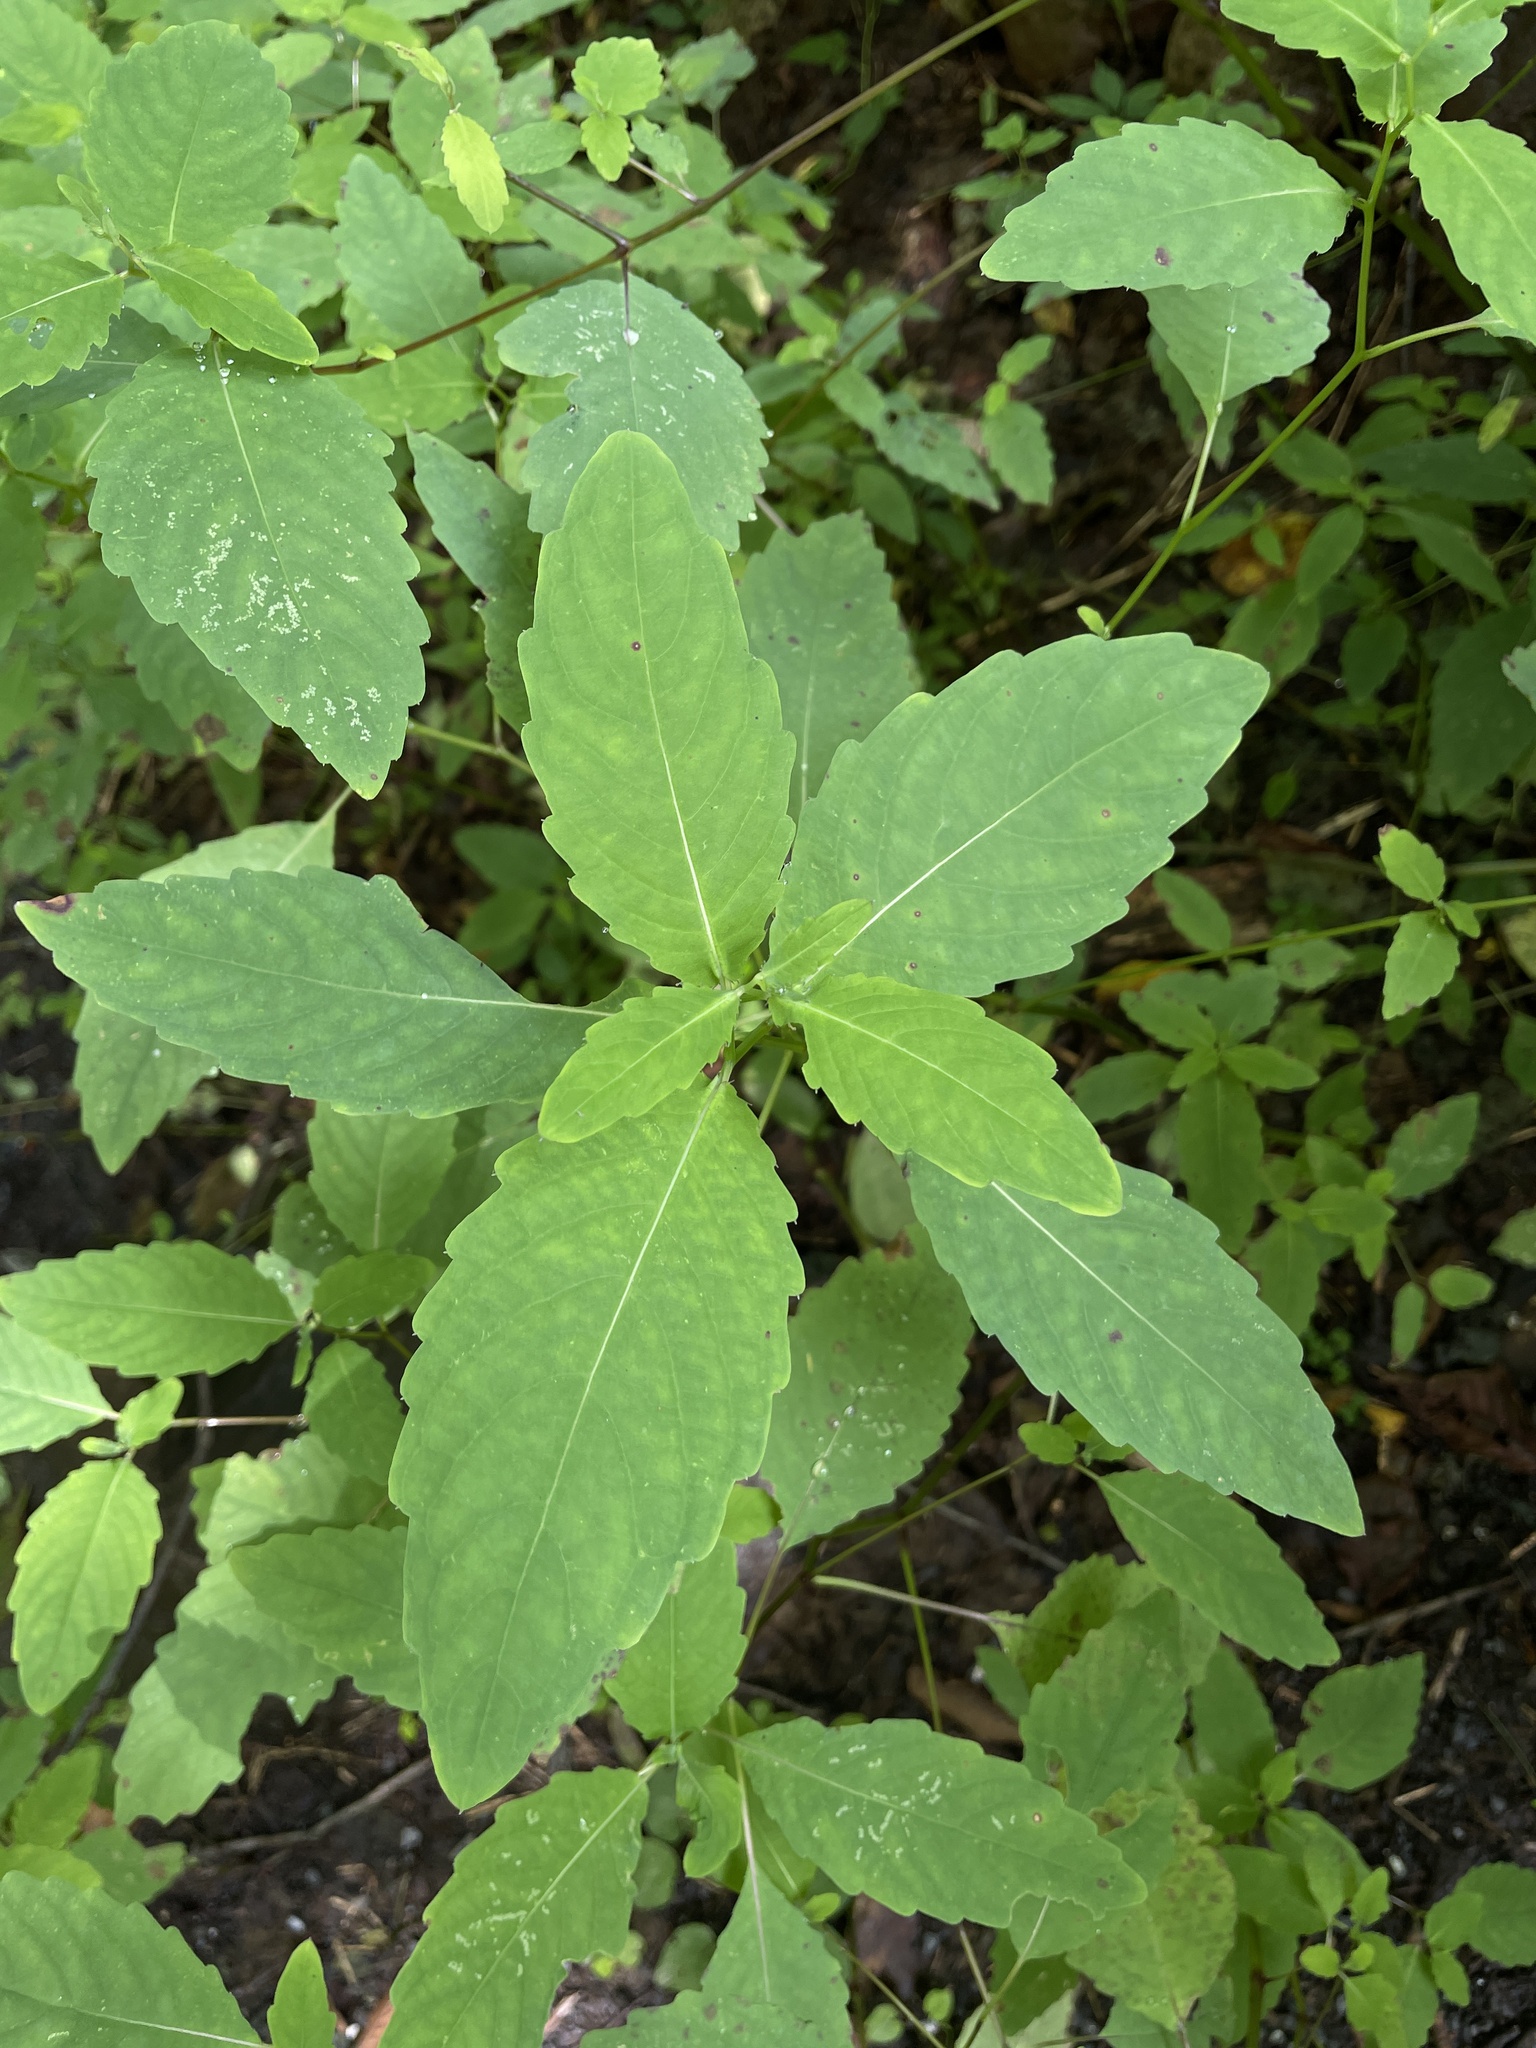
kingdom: Plantae
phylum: Tracheophyta
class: Magnoliopsida
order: Ericales
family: Balsaminaceae
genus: Impatiens
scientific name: Impatiens pallida
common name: Pale snapweed
